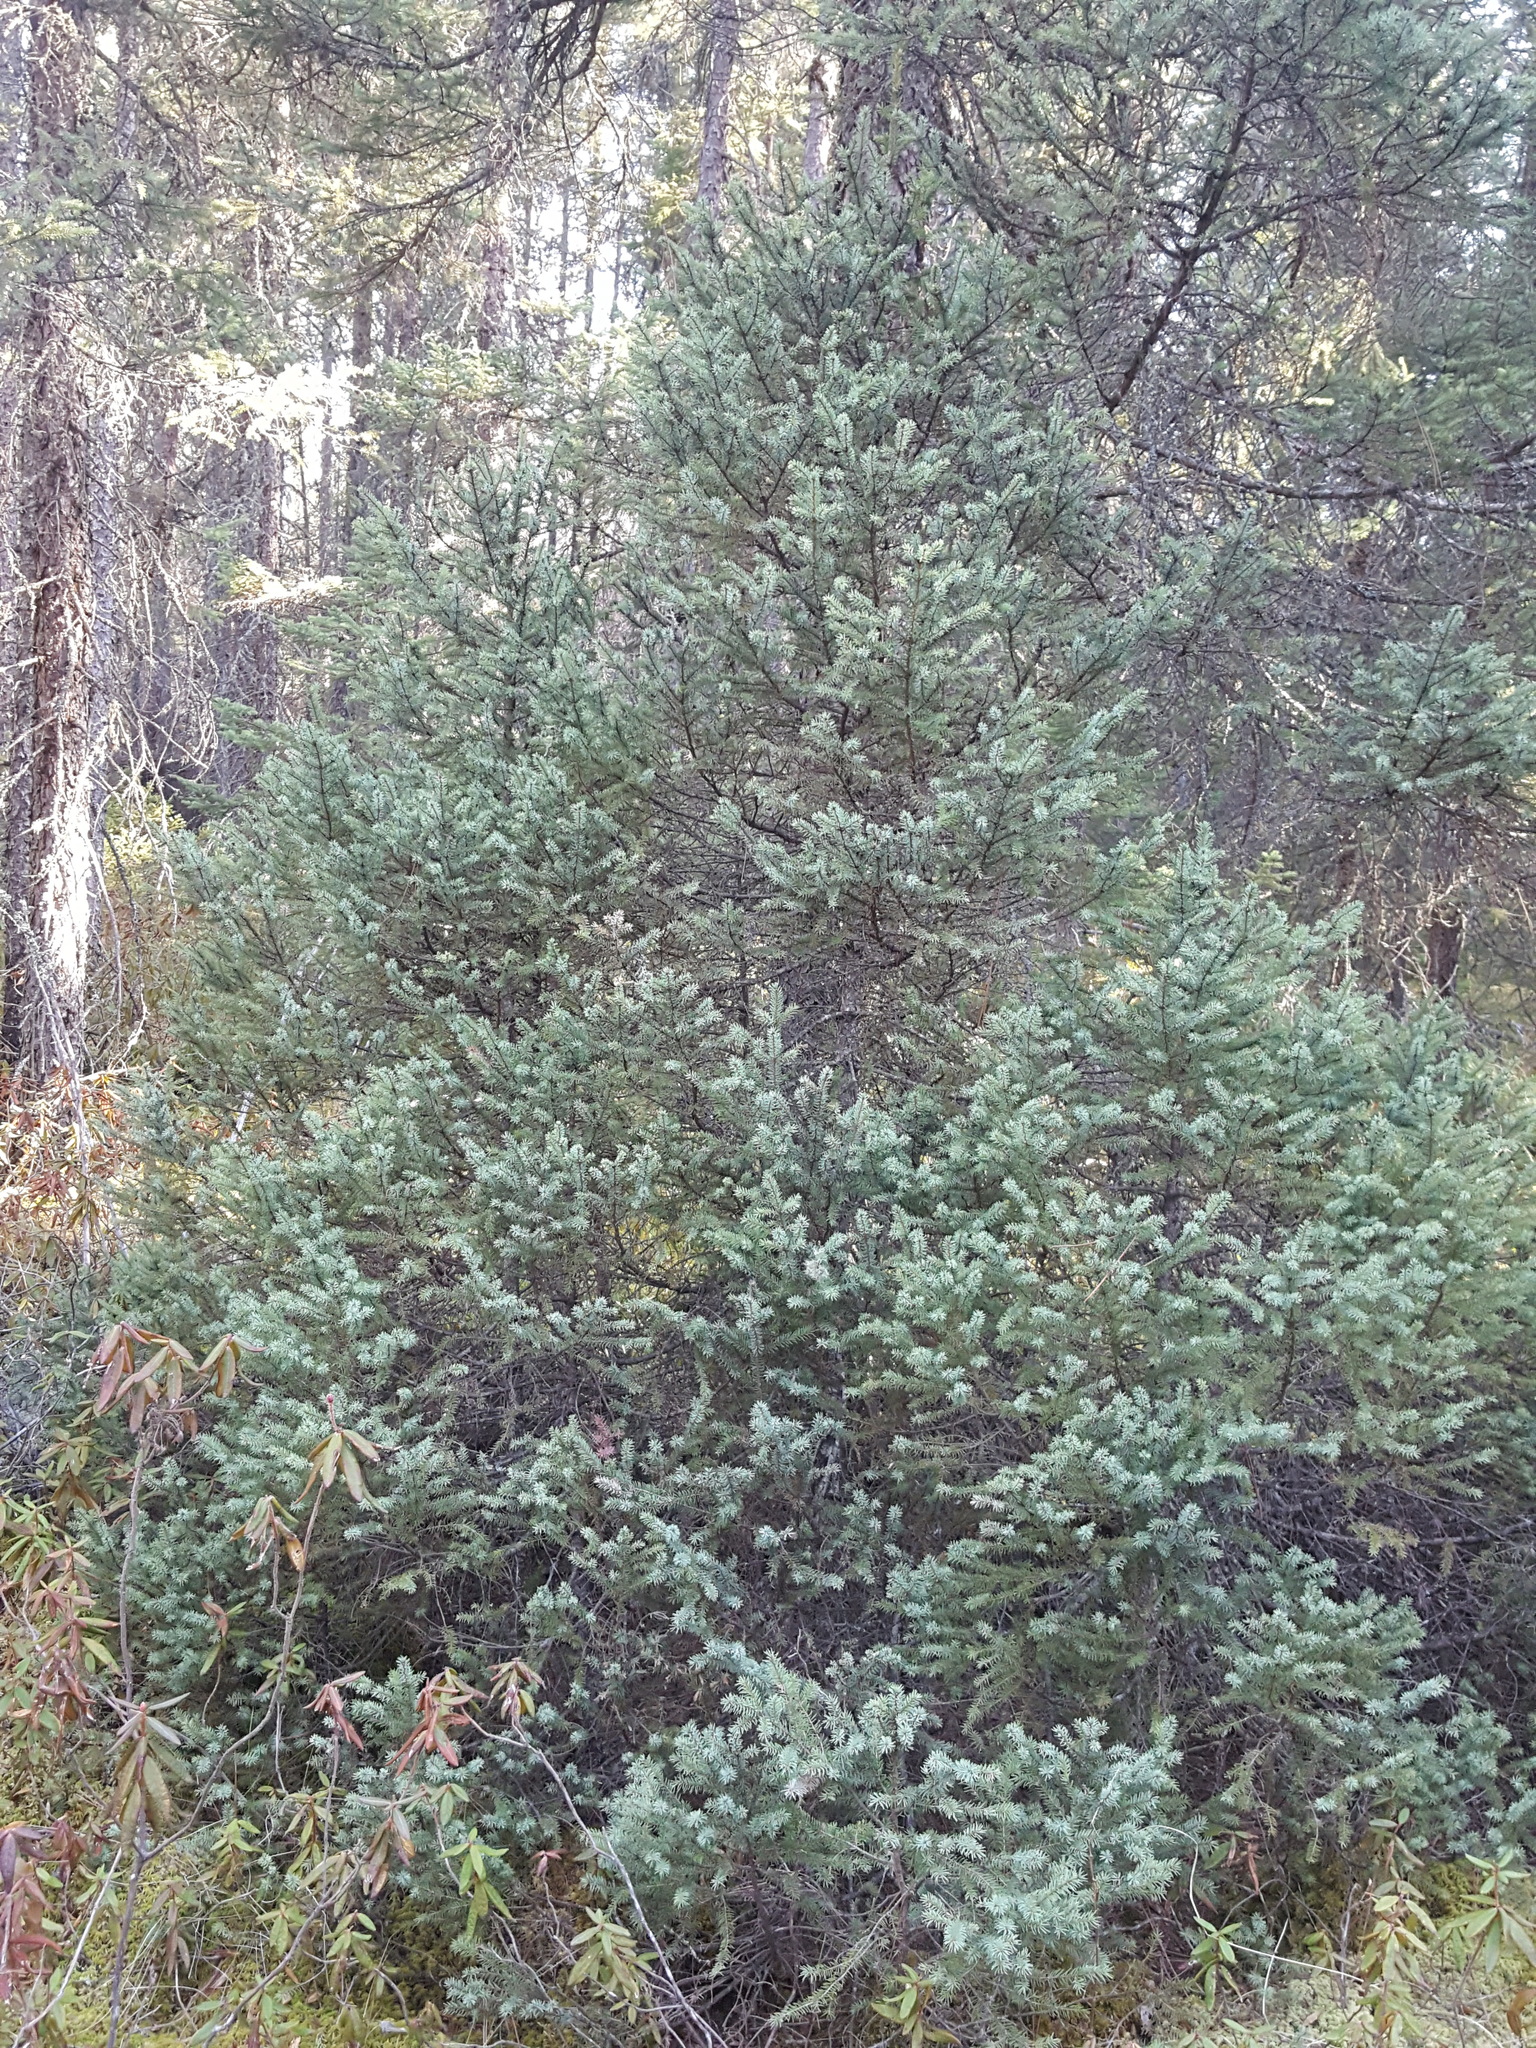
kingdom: Plantae
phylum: Tracheophyta
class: Pinopsida
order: Pinales
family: Pinaceae
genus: Picea
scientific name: Picea mariana
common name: Black spruce
